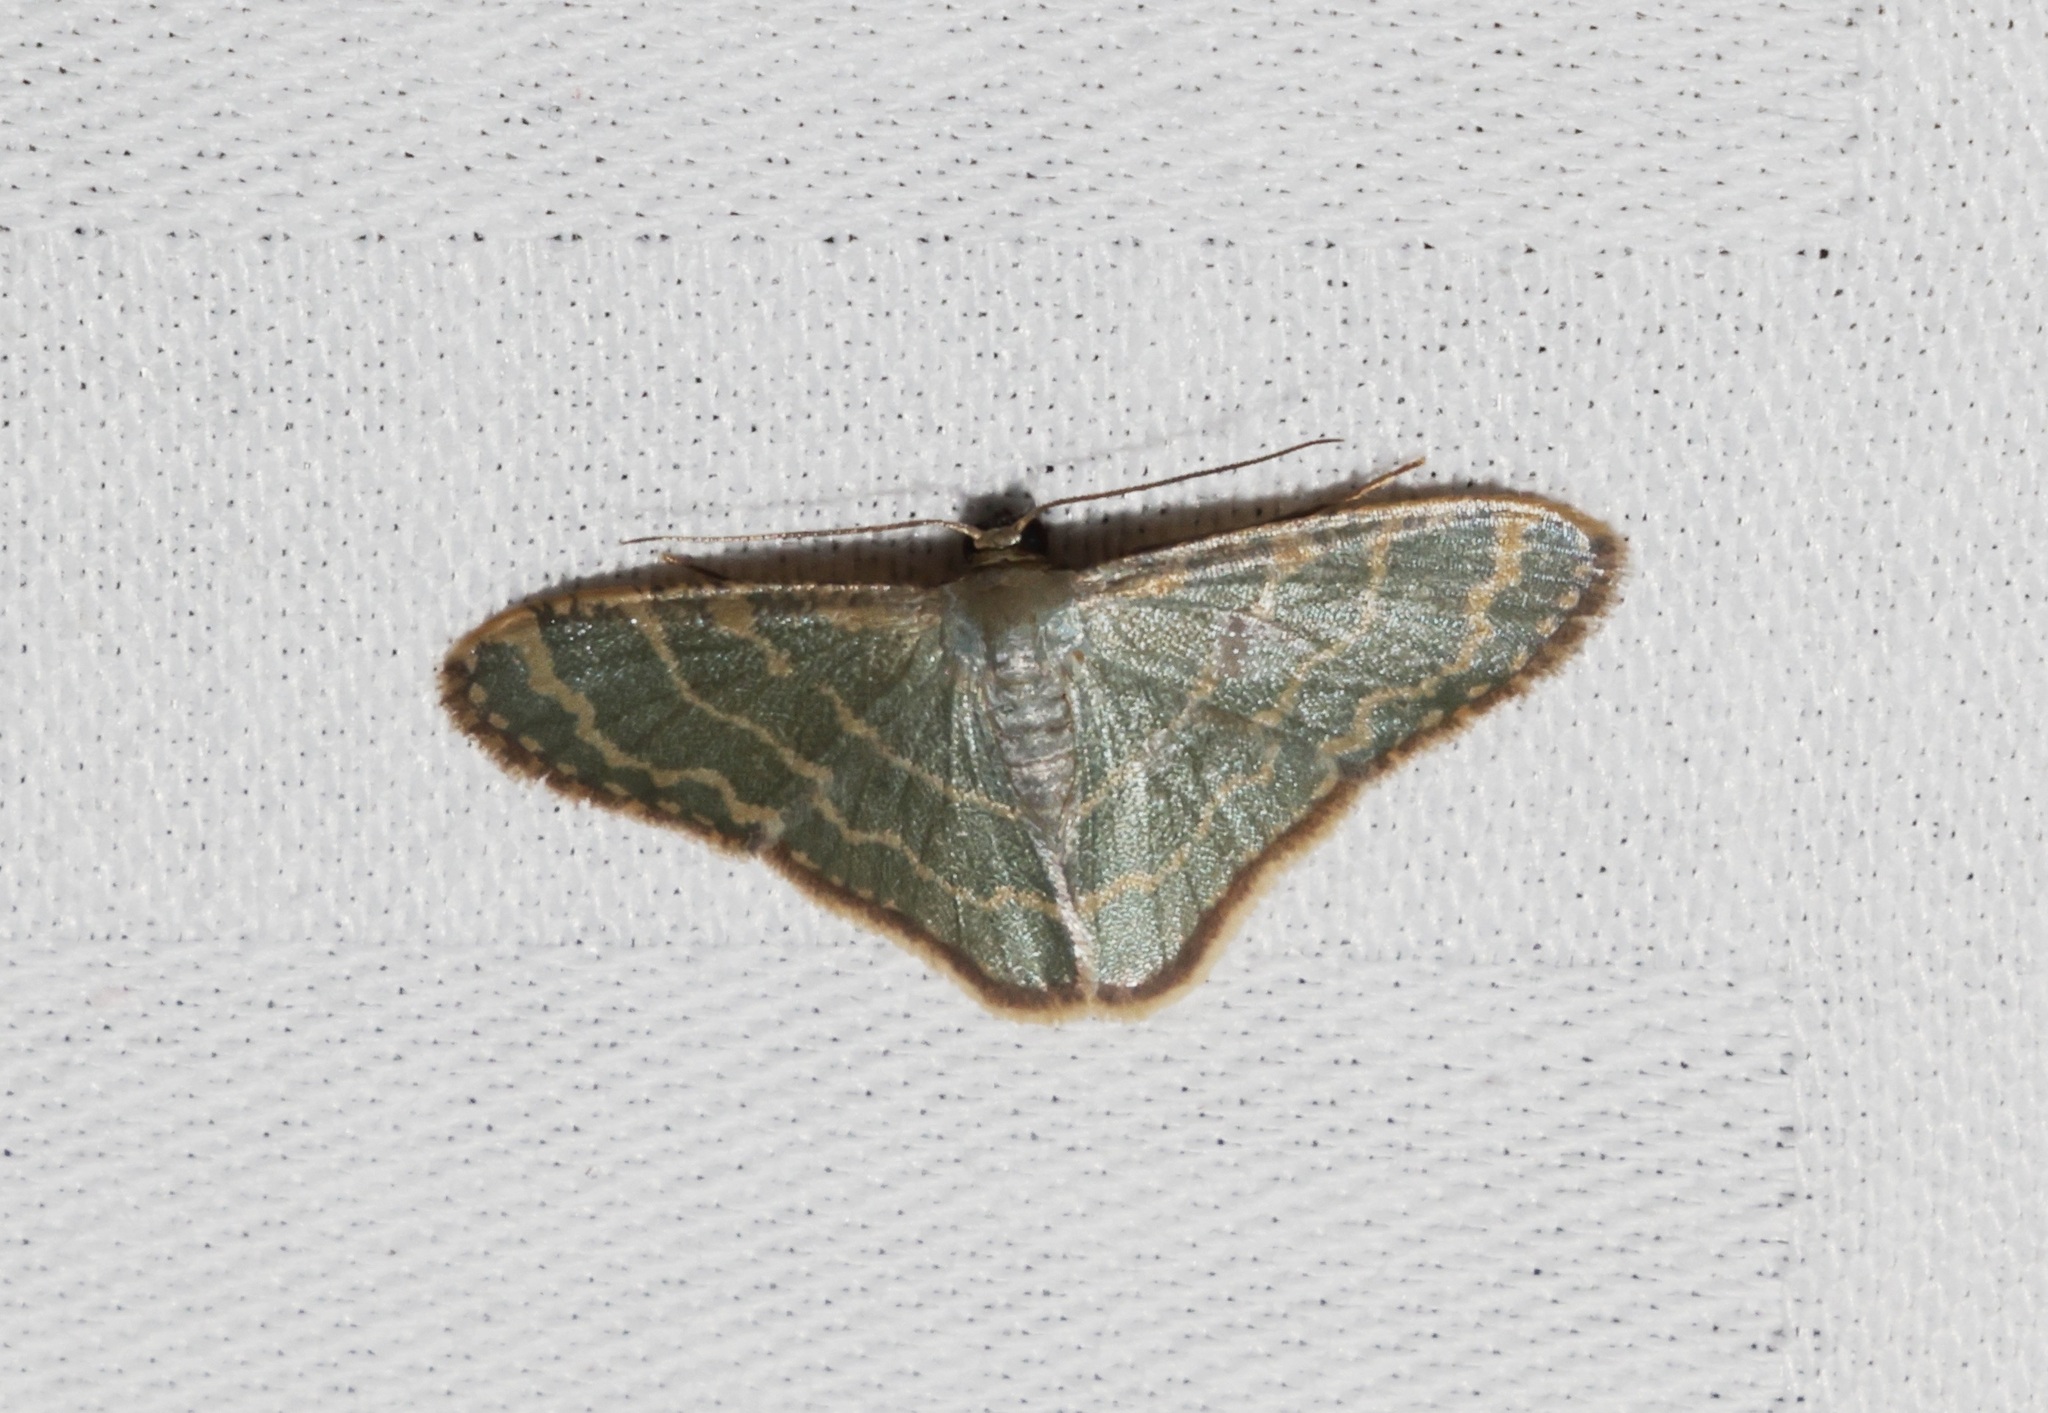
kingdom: Animalia
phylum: Arthropoda
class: Insecta
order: Lepidoptera
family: Geometridae
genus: Lophophleps
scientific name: Lophophleps triangularis
